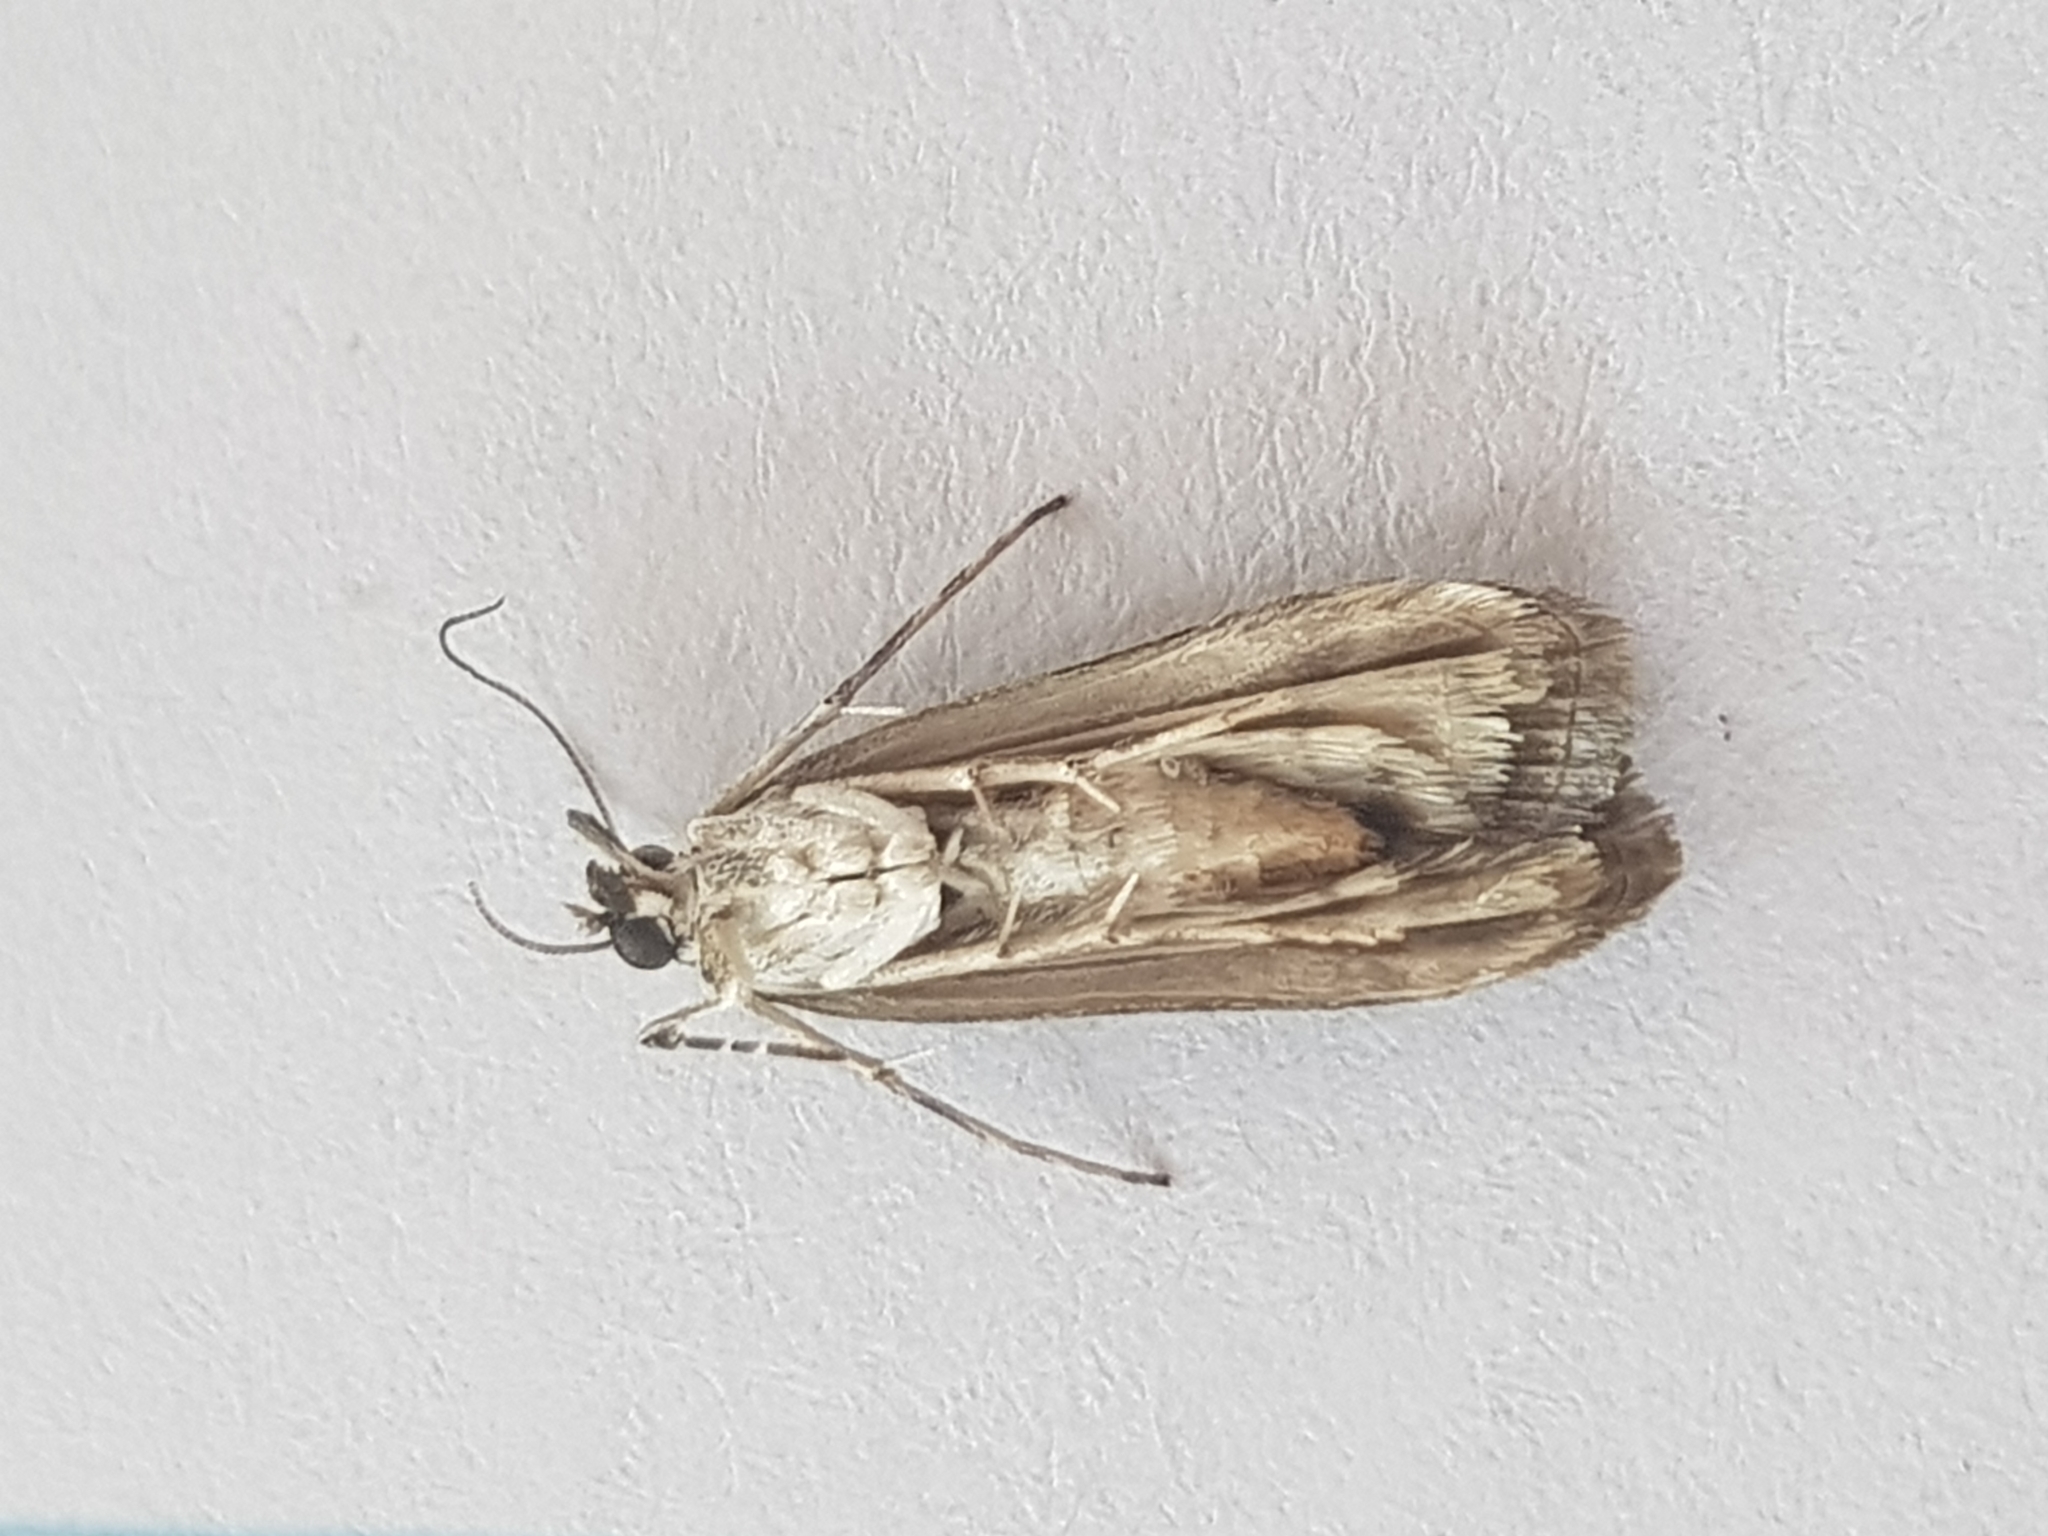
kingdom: Animalia
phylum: Arthropoda
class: Insecta
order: Lepidoptera
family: Crambidae
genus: Eudonia
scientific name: Eudonia cataxesta
